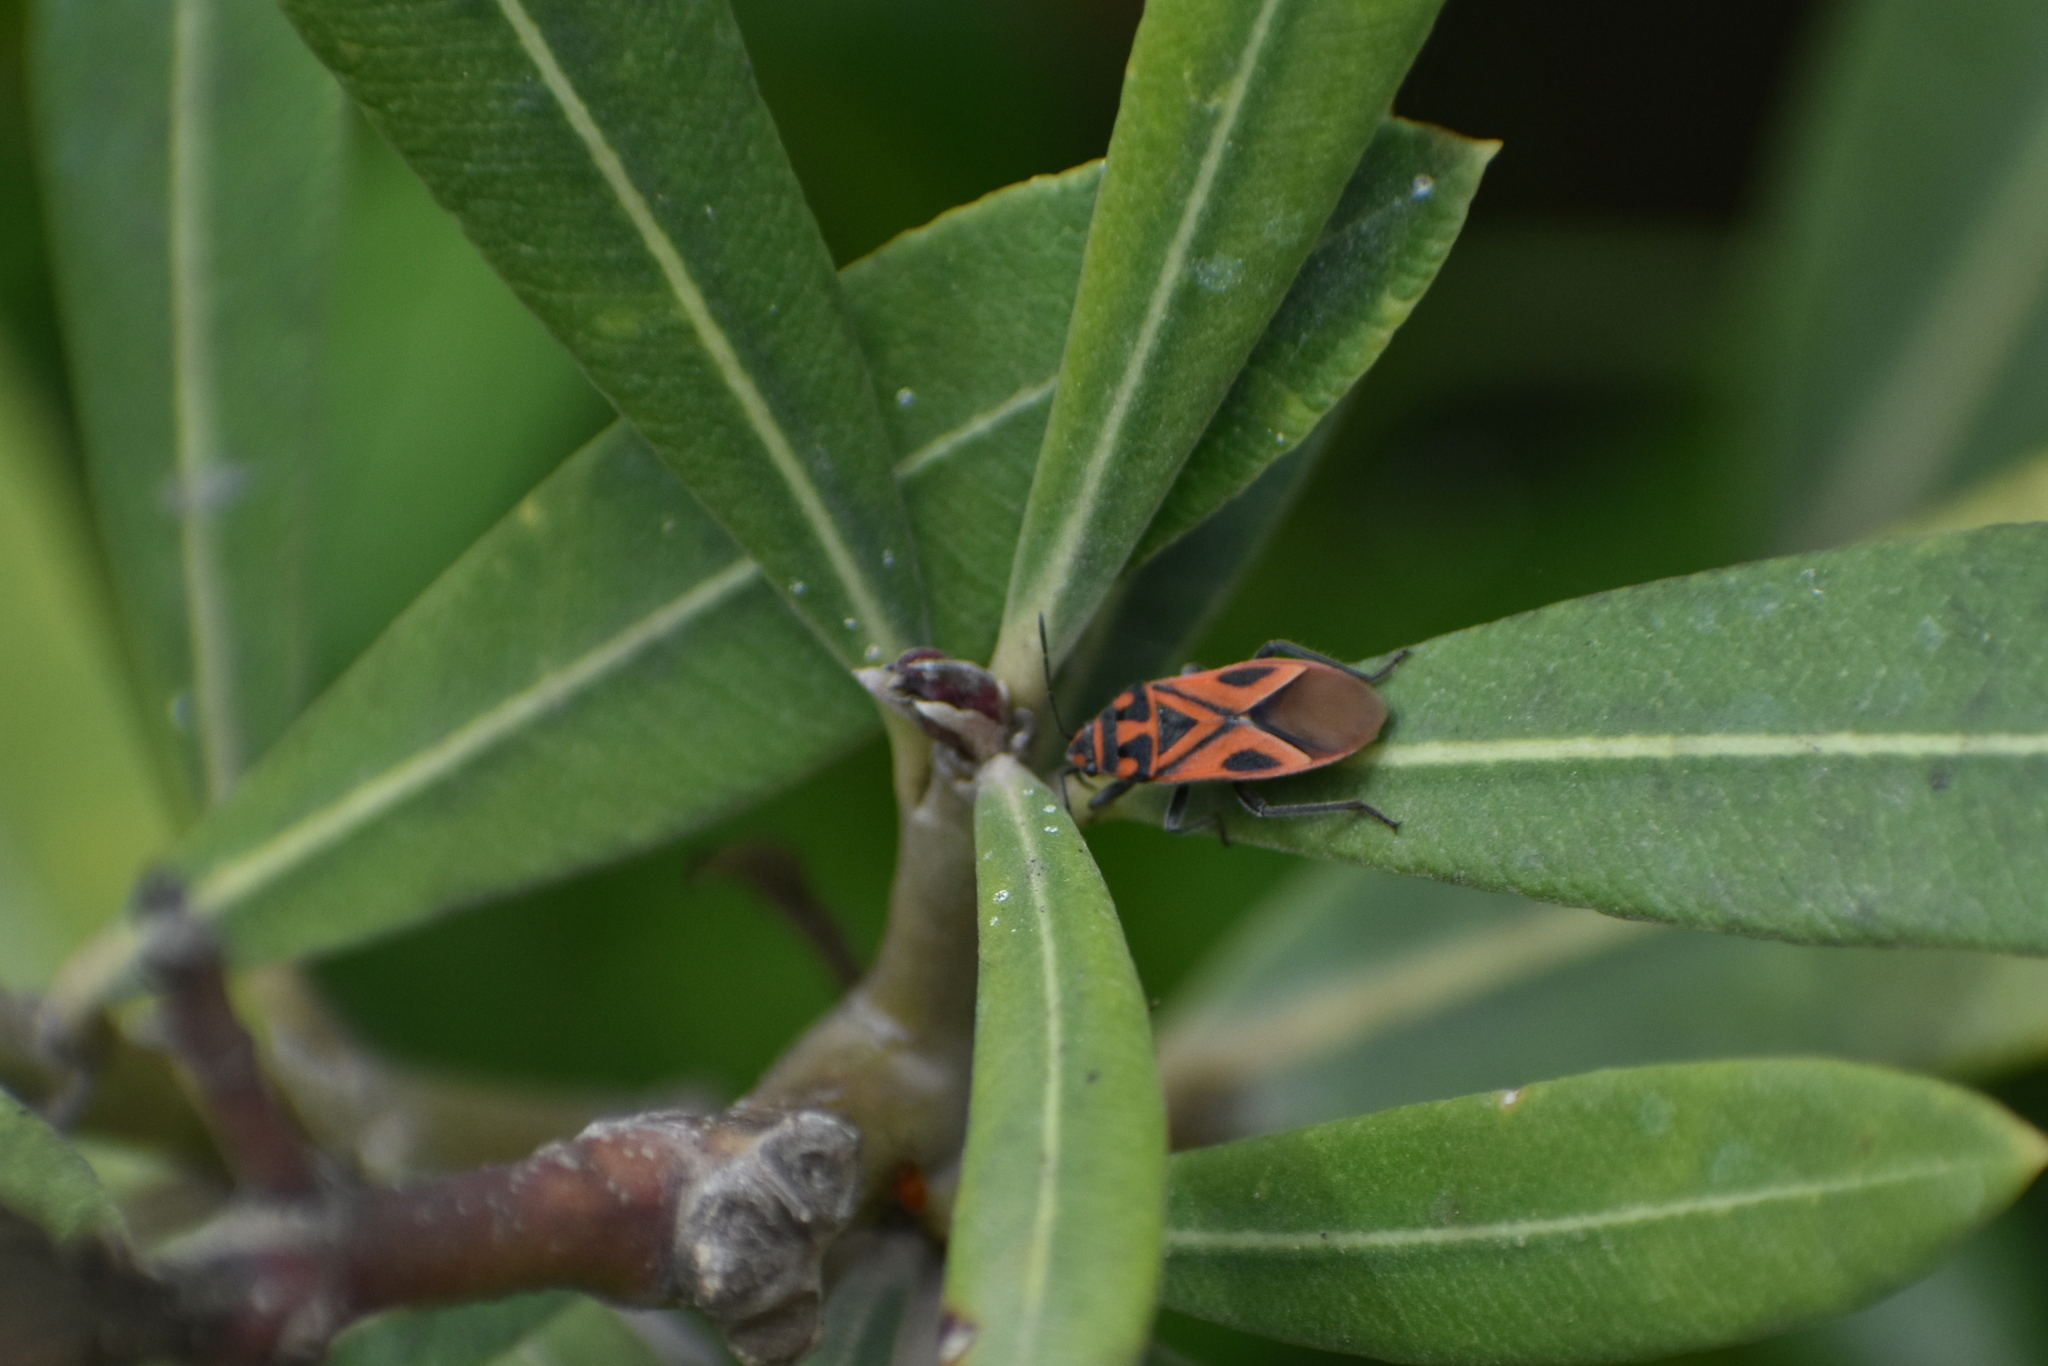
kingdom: Animalia
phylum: Arthropoda
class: Insecta
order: Hemiptera
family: Lygaeidae
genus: Graptostethus
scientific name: Graptostethus servus
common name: Lygaeid bug
